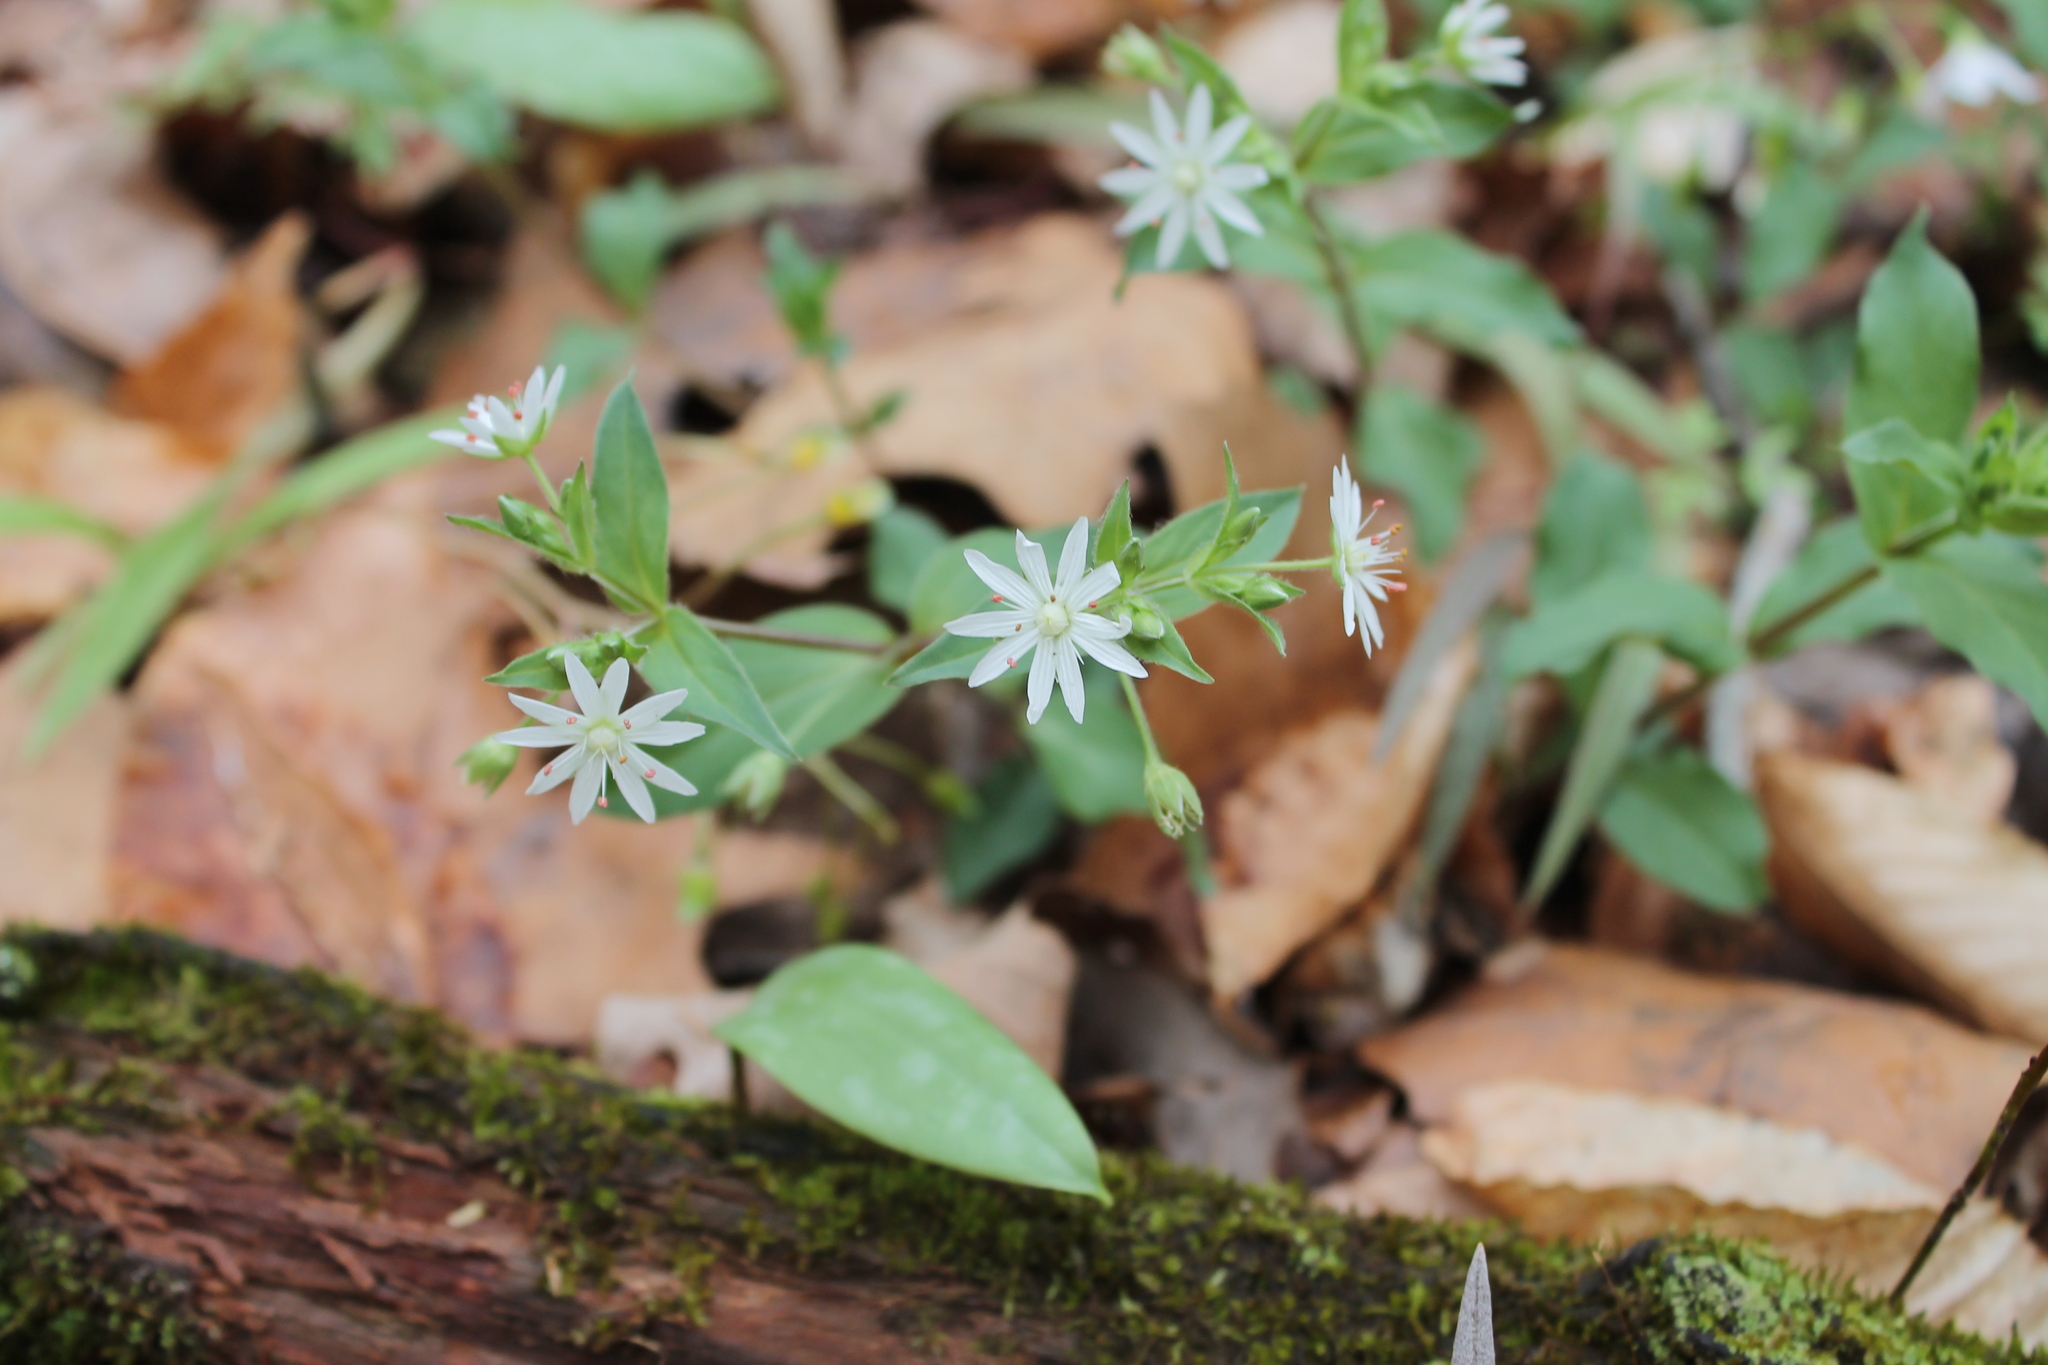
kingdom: Plantae
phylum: Tracheophyta
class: Magnoliopsida
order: Caryophyllales
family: Caryophyllaceae
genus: Stellaria
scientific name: Stellaria pubera
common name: Star chickweed
